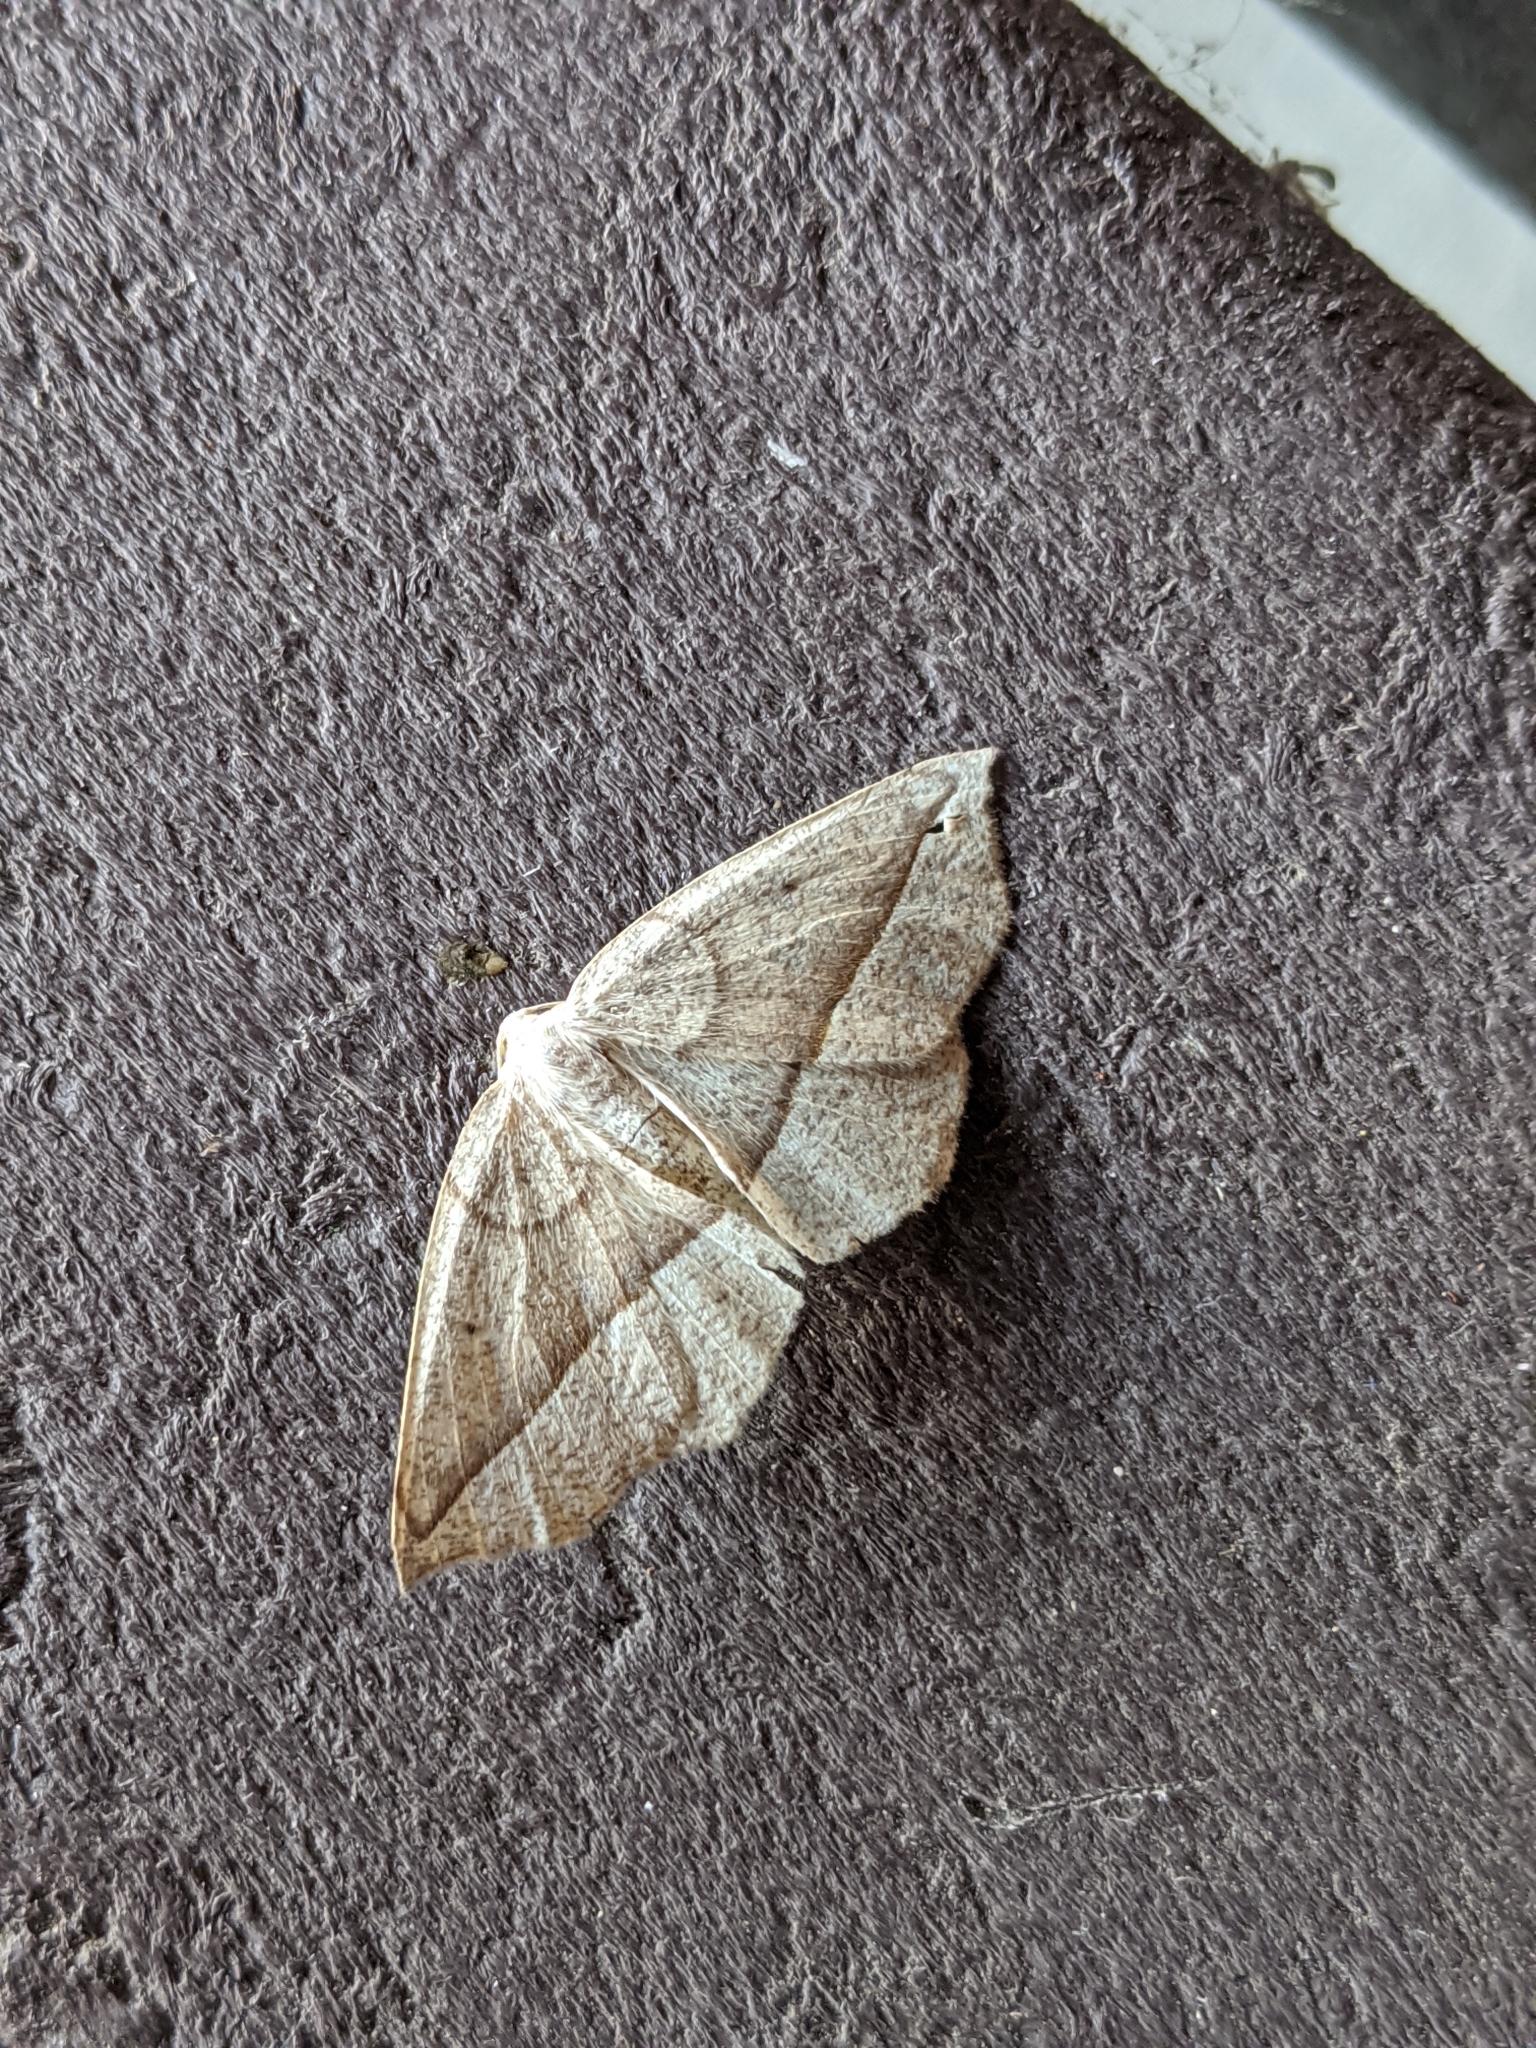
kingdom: Animalia
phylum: Arthropoda
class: Insecta
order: Lepidoptera
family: Geometridae
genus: Eusarca
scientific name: Eusarca confusaria
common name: Confused eusarca
